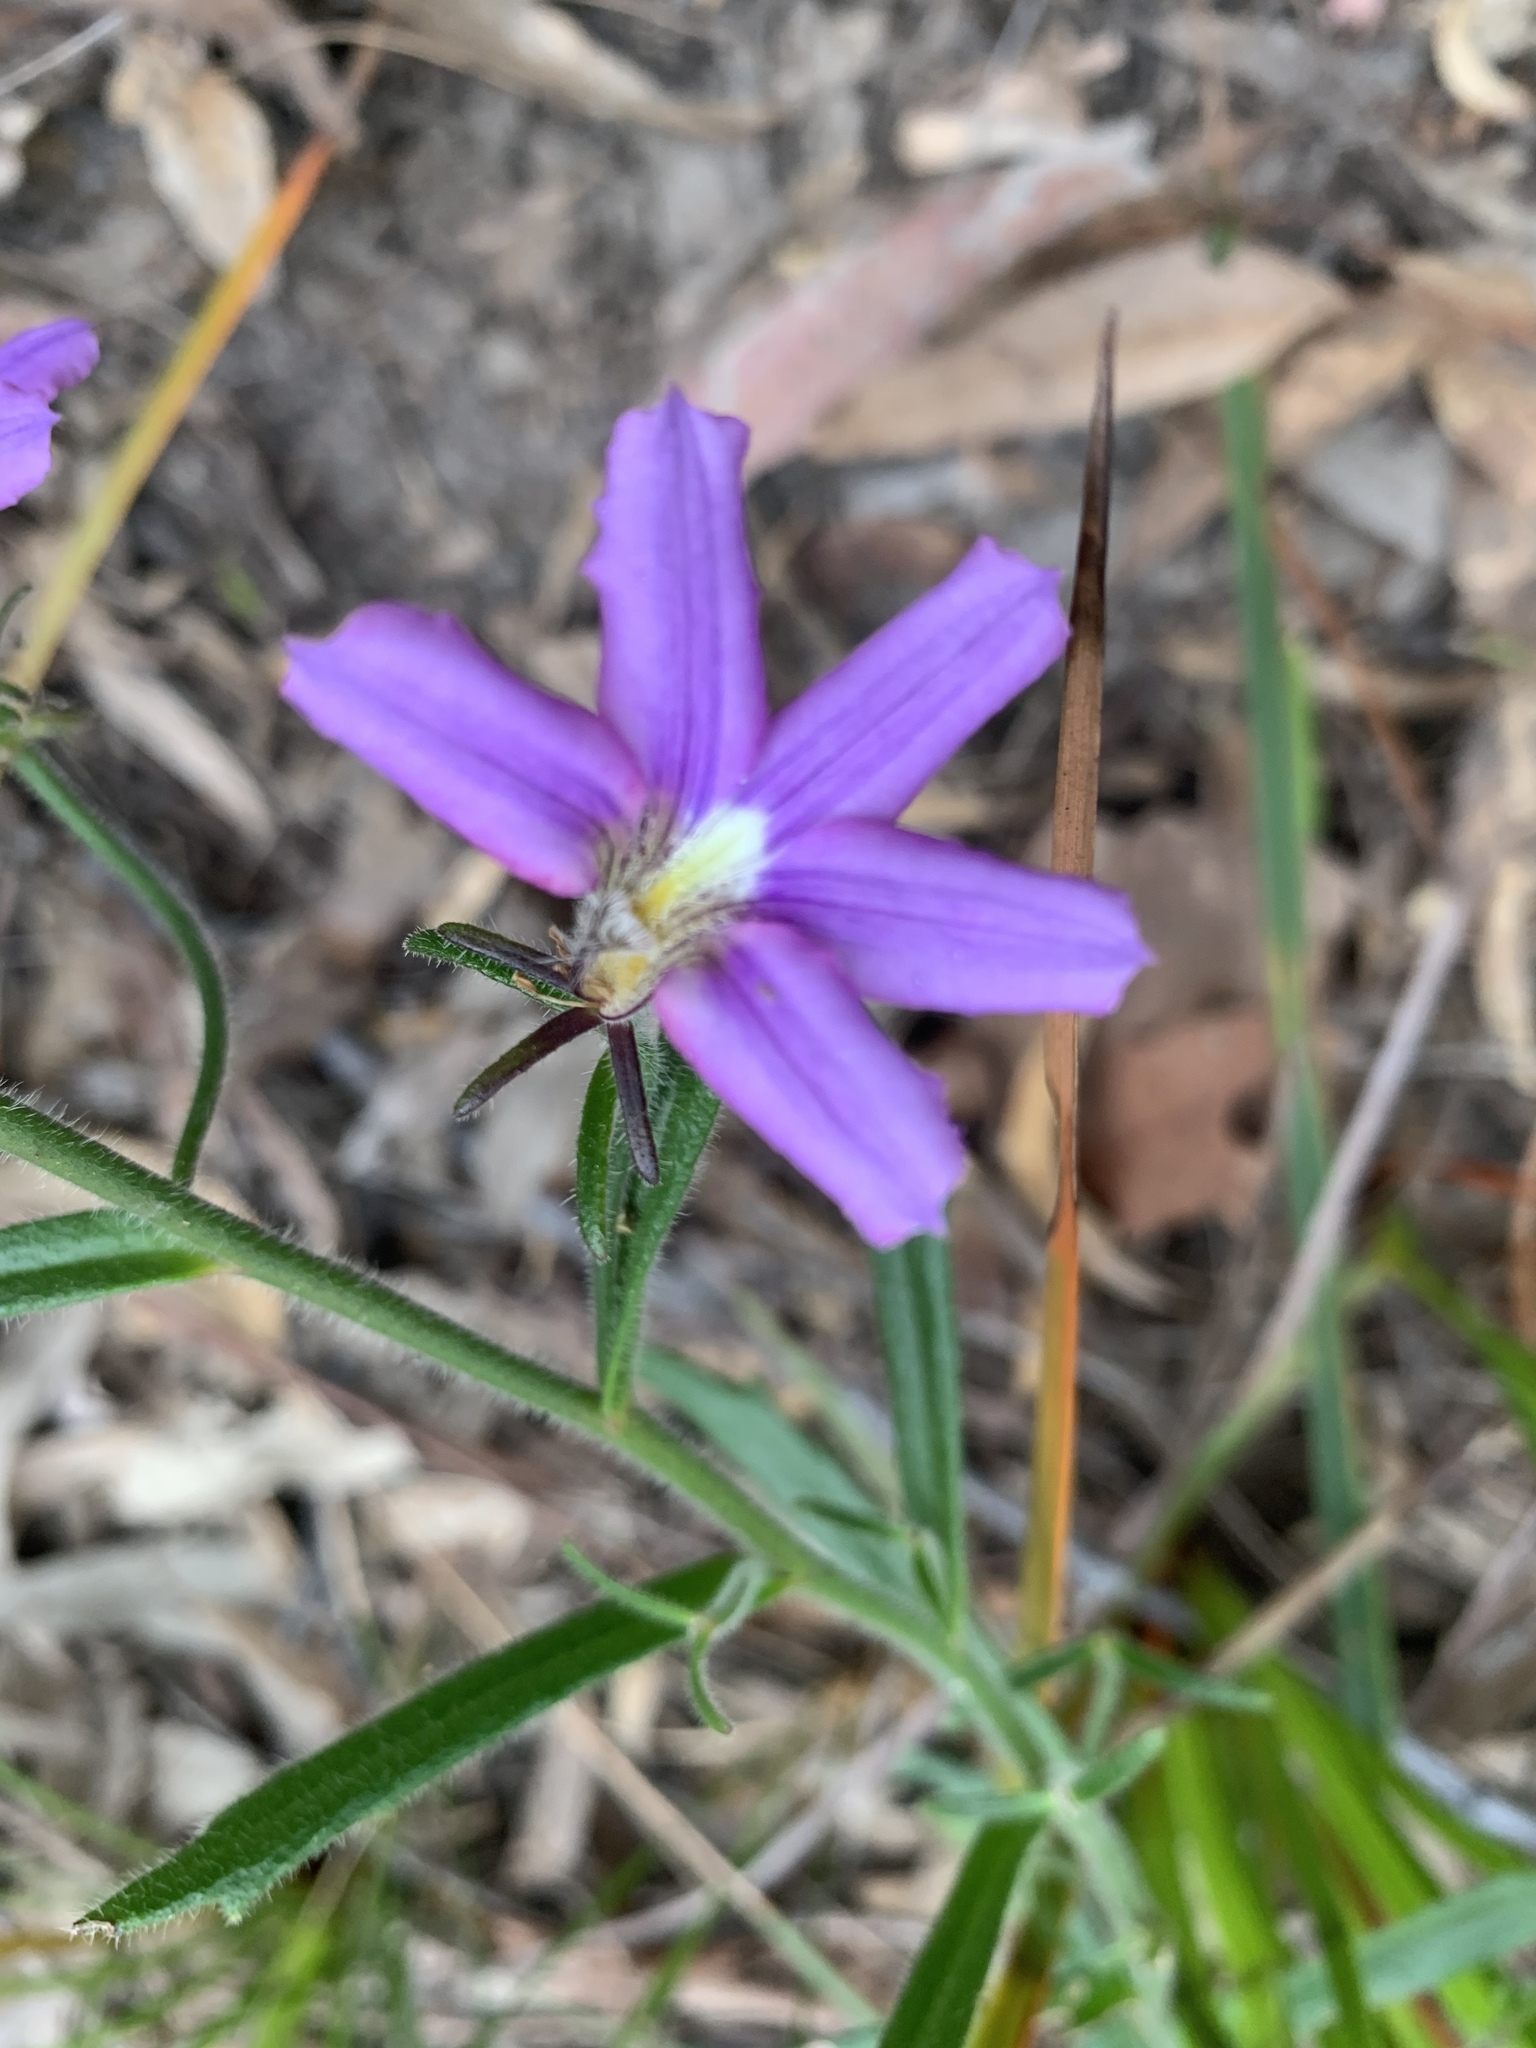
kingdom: Plantae
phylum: Tracheophyta
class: Magnoliopsida
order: Asterales
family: Goodeniaceae
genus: Scaevola
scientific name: Scaevola ramosissima
